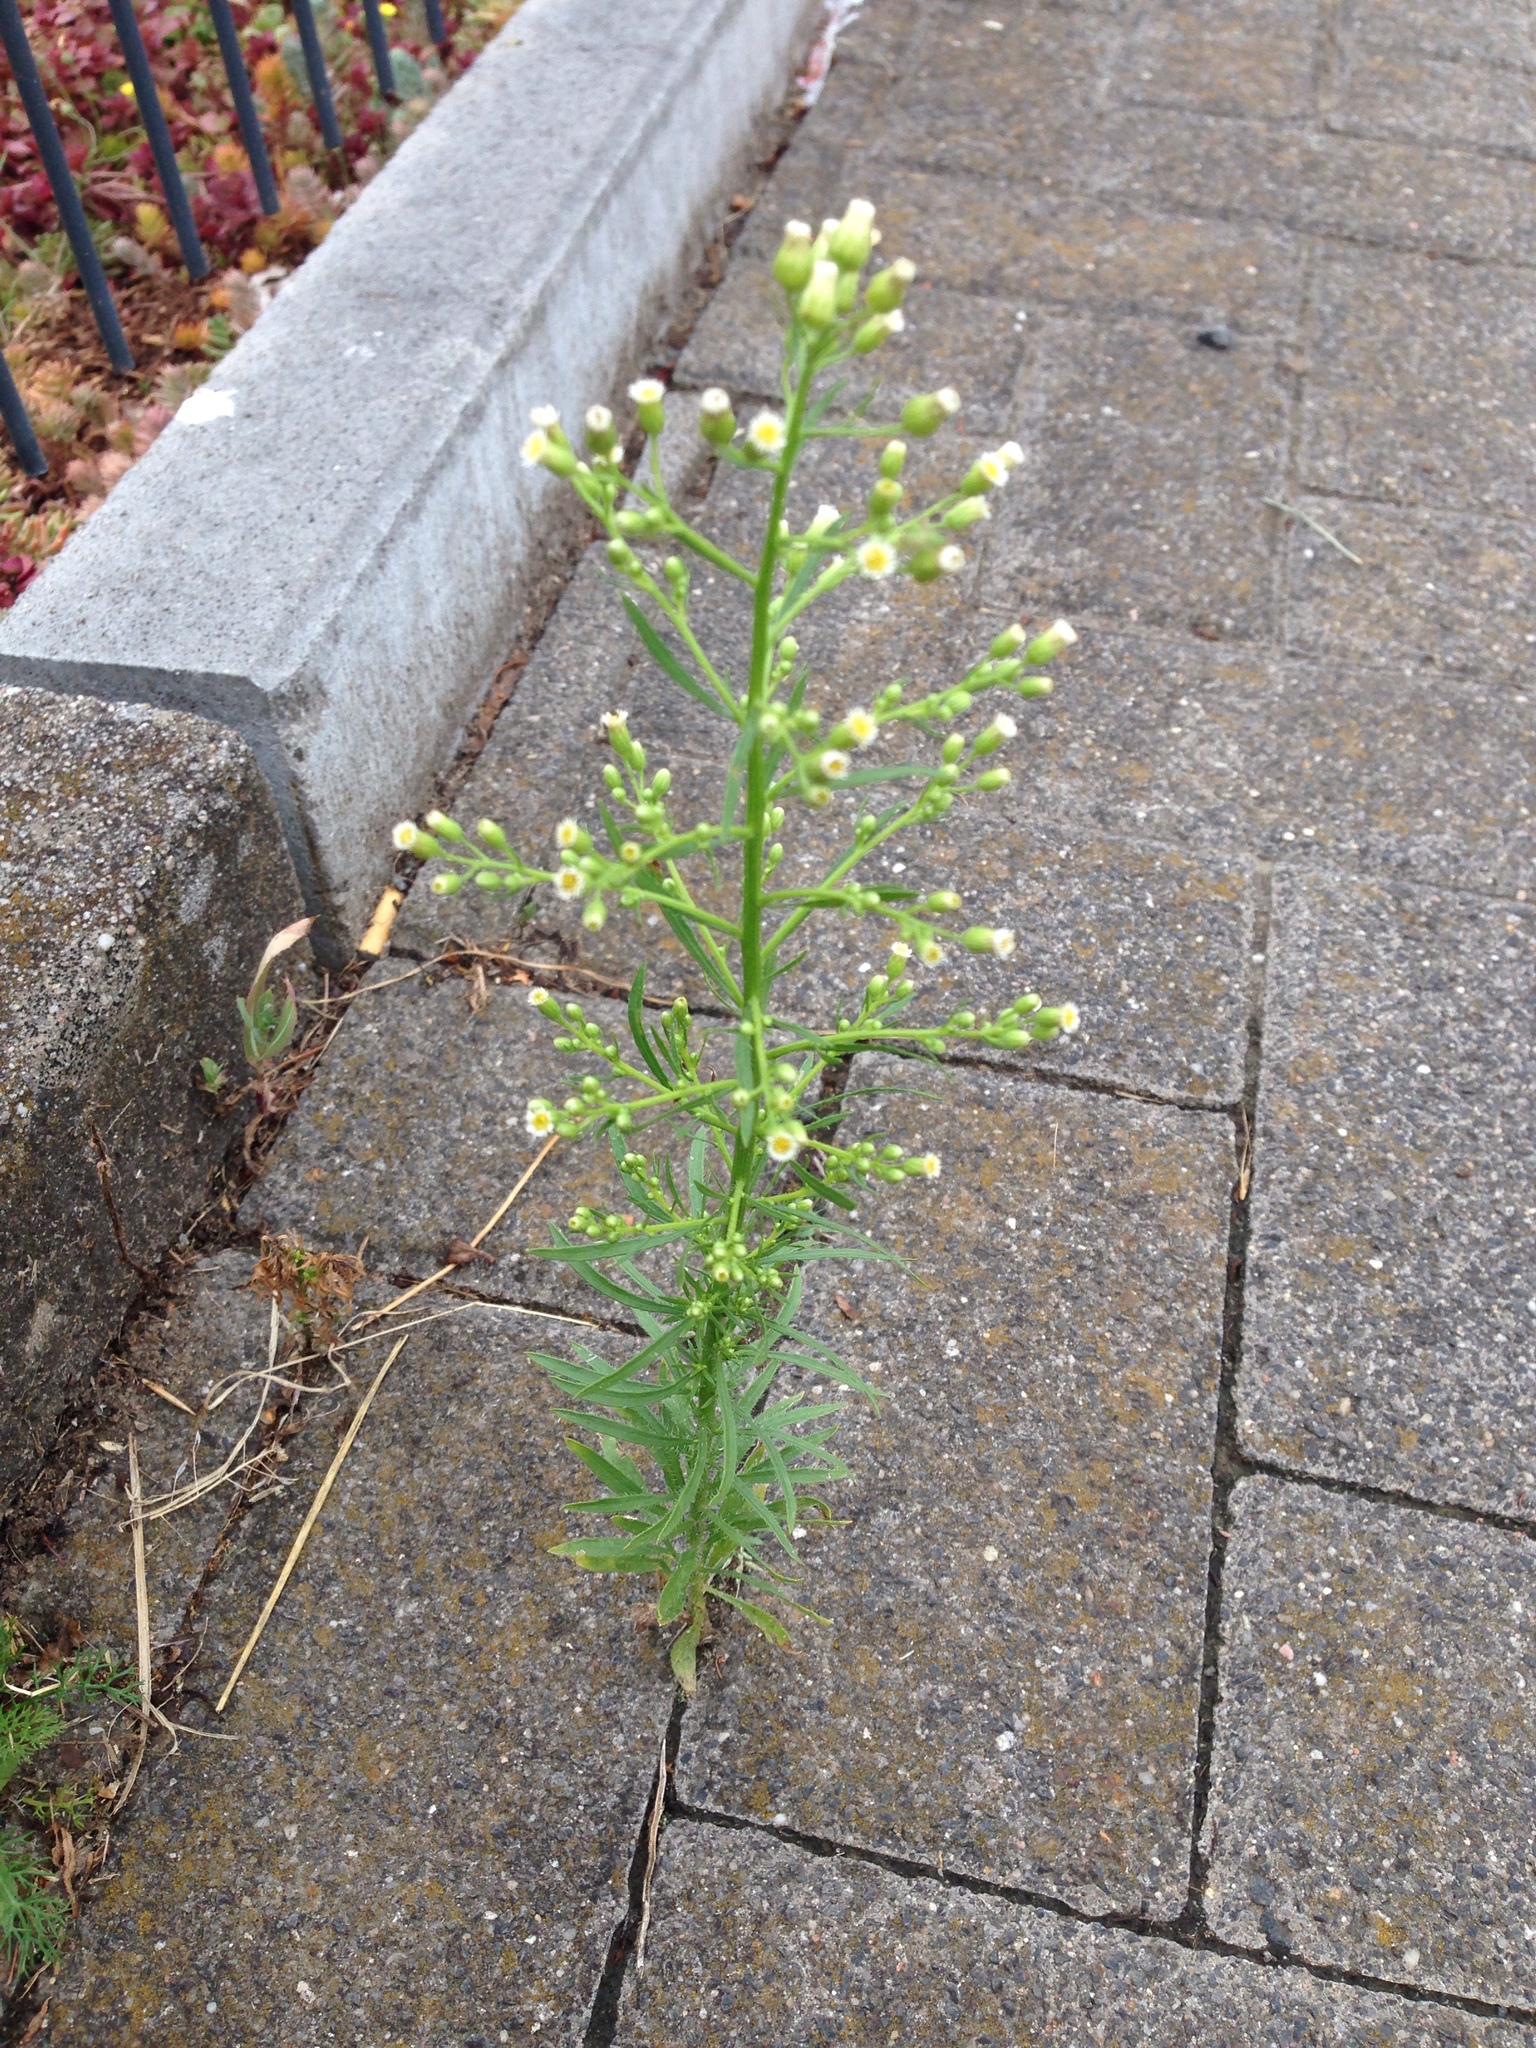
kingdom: Plantae
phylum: Tracheophyta
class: Magnoliopsida
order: Asterales
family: Asteraceae
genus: Erigeron
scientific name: Erigeron canadensis
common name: Canadian fleabane
